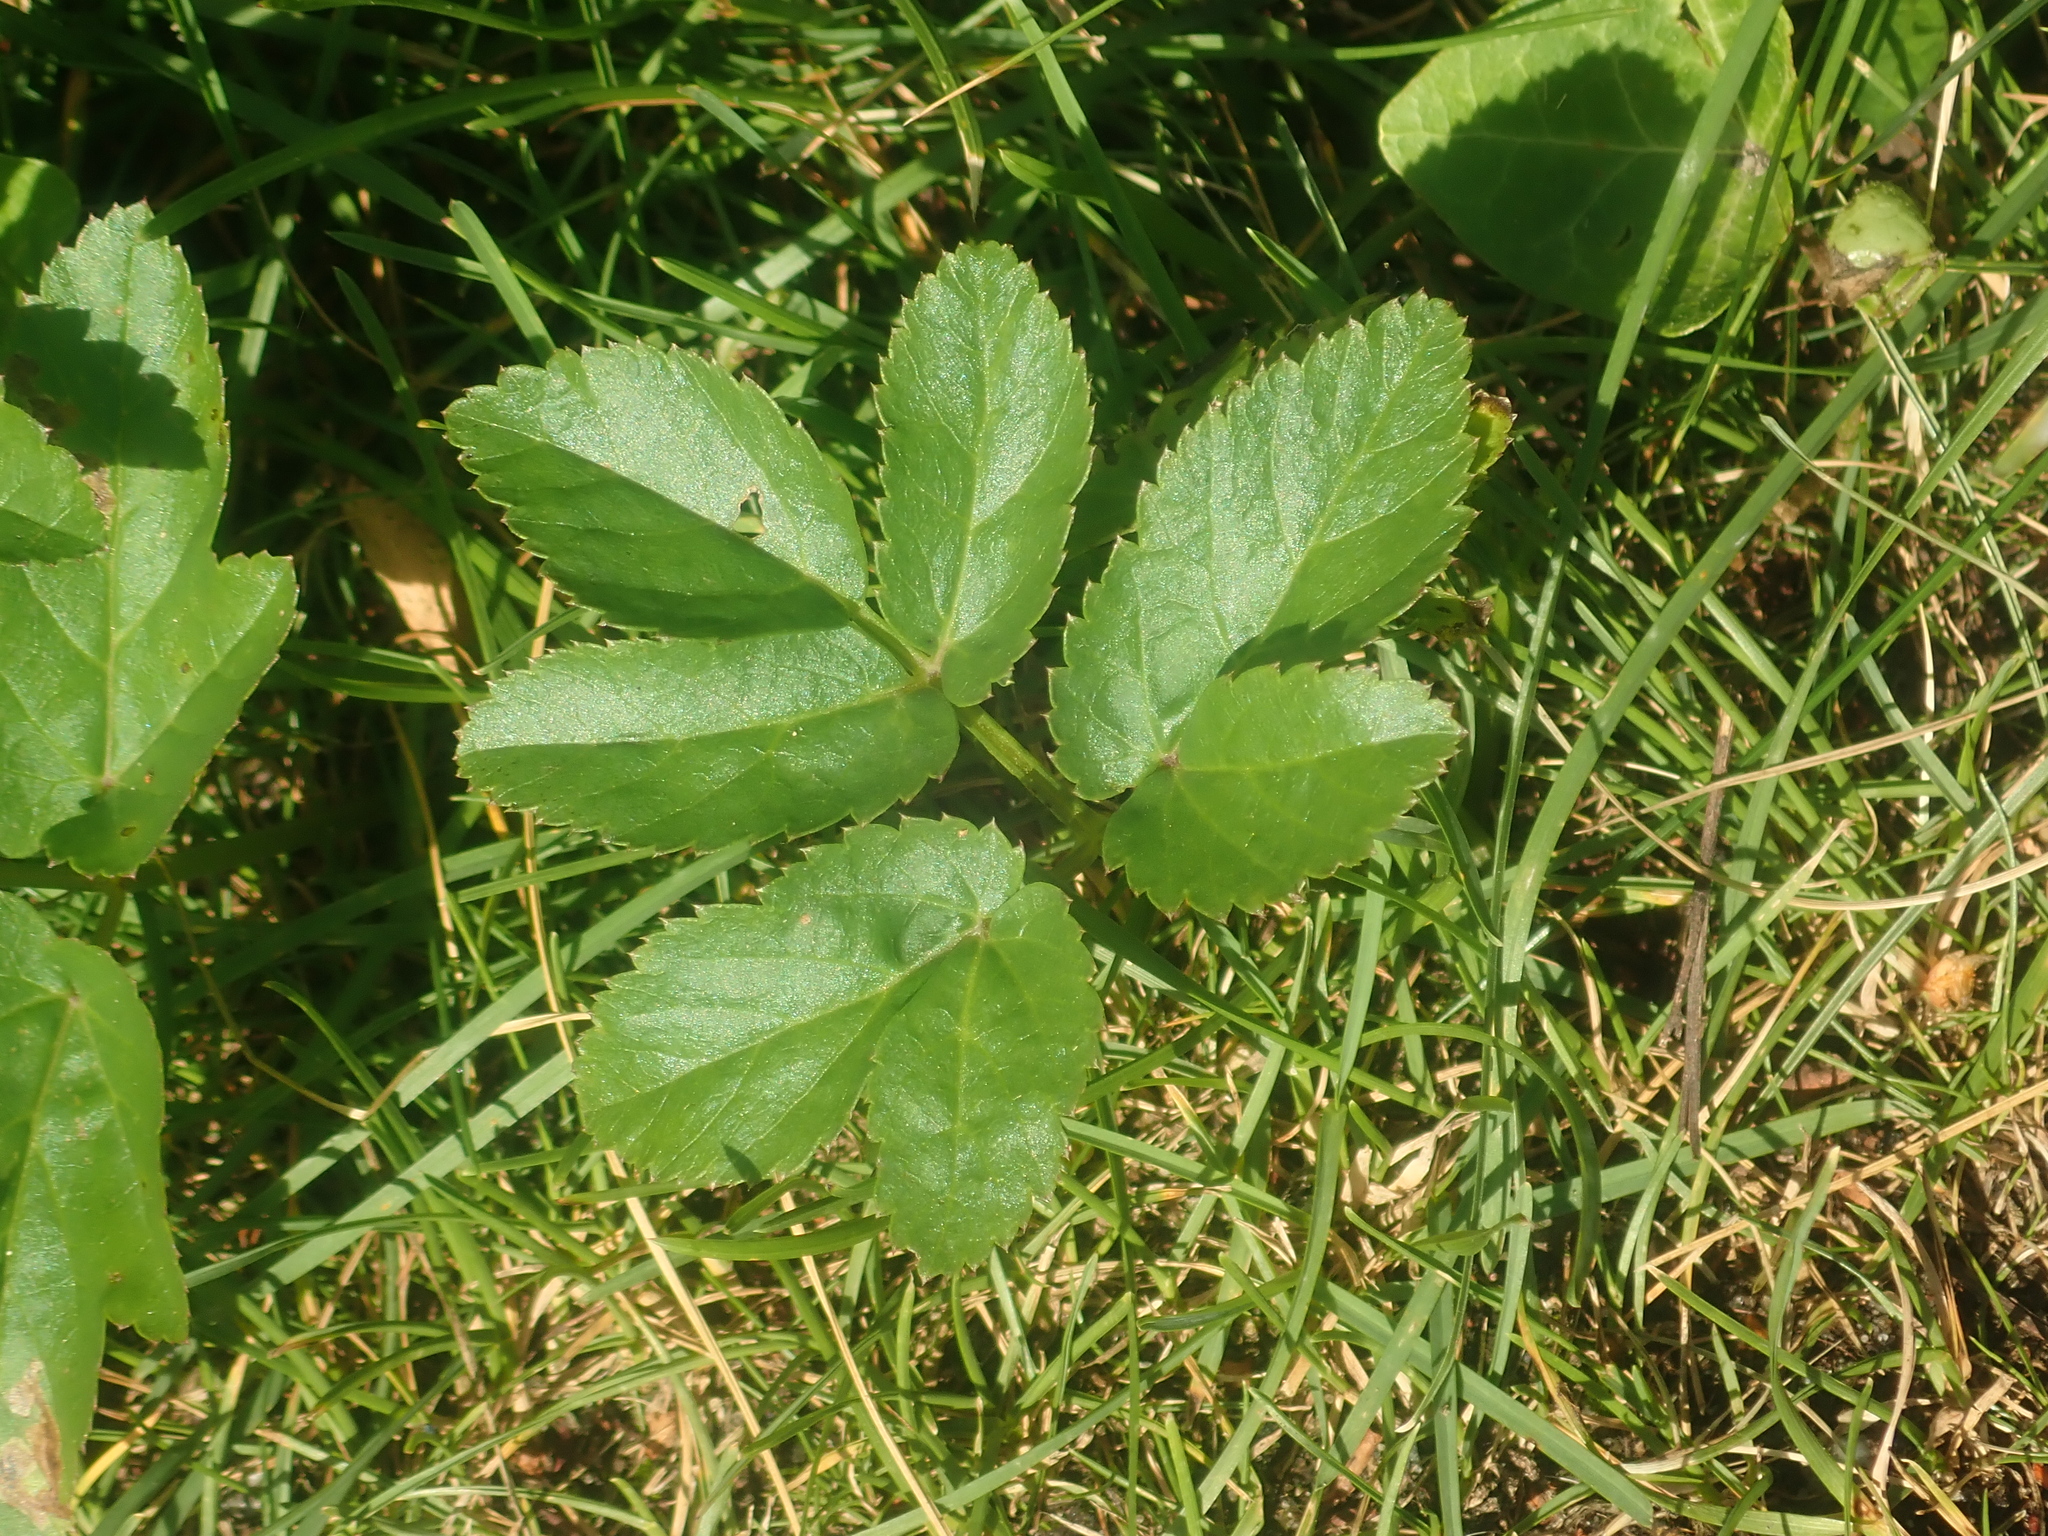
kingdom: Plantae
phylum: Tracheophyta
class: Magnoliopsida
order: Apiales
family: Apiaceae
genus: Aegopodium
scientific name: Aegopodium podagraria
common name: Ground-elder
